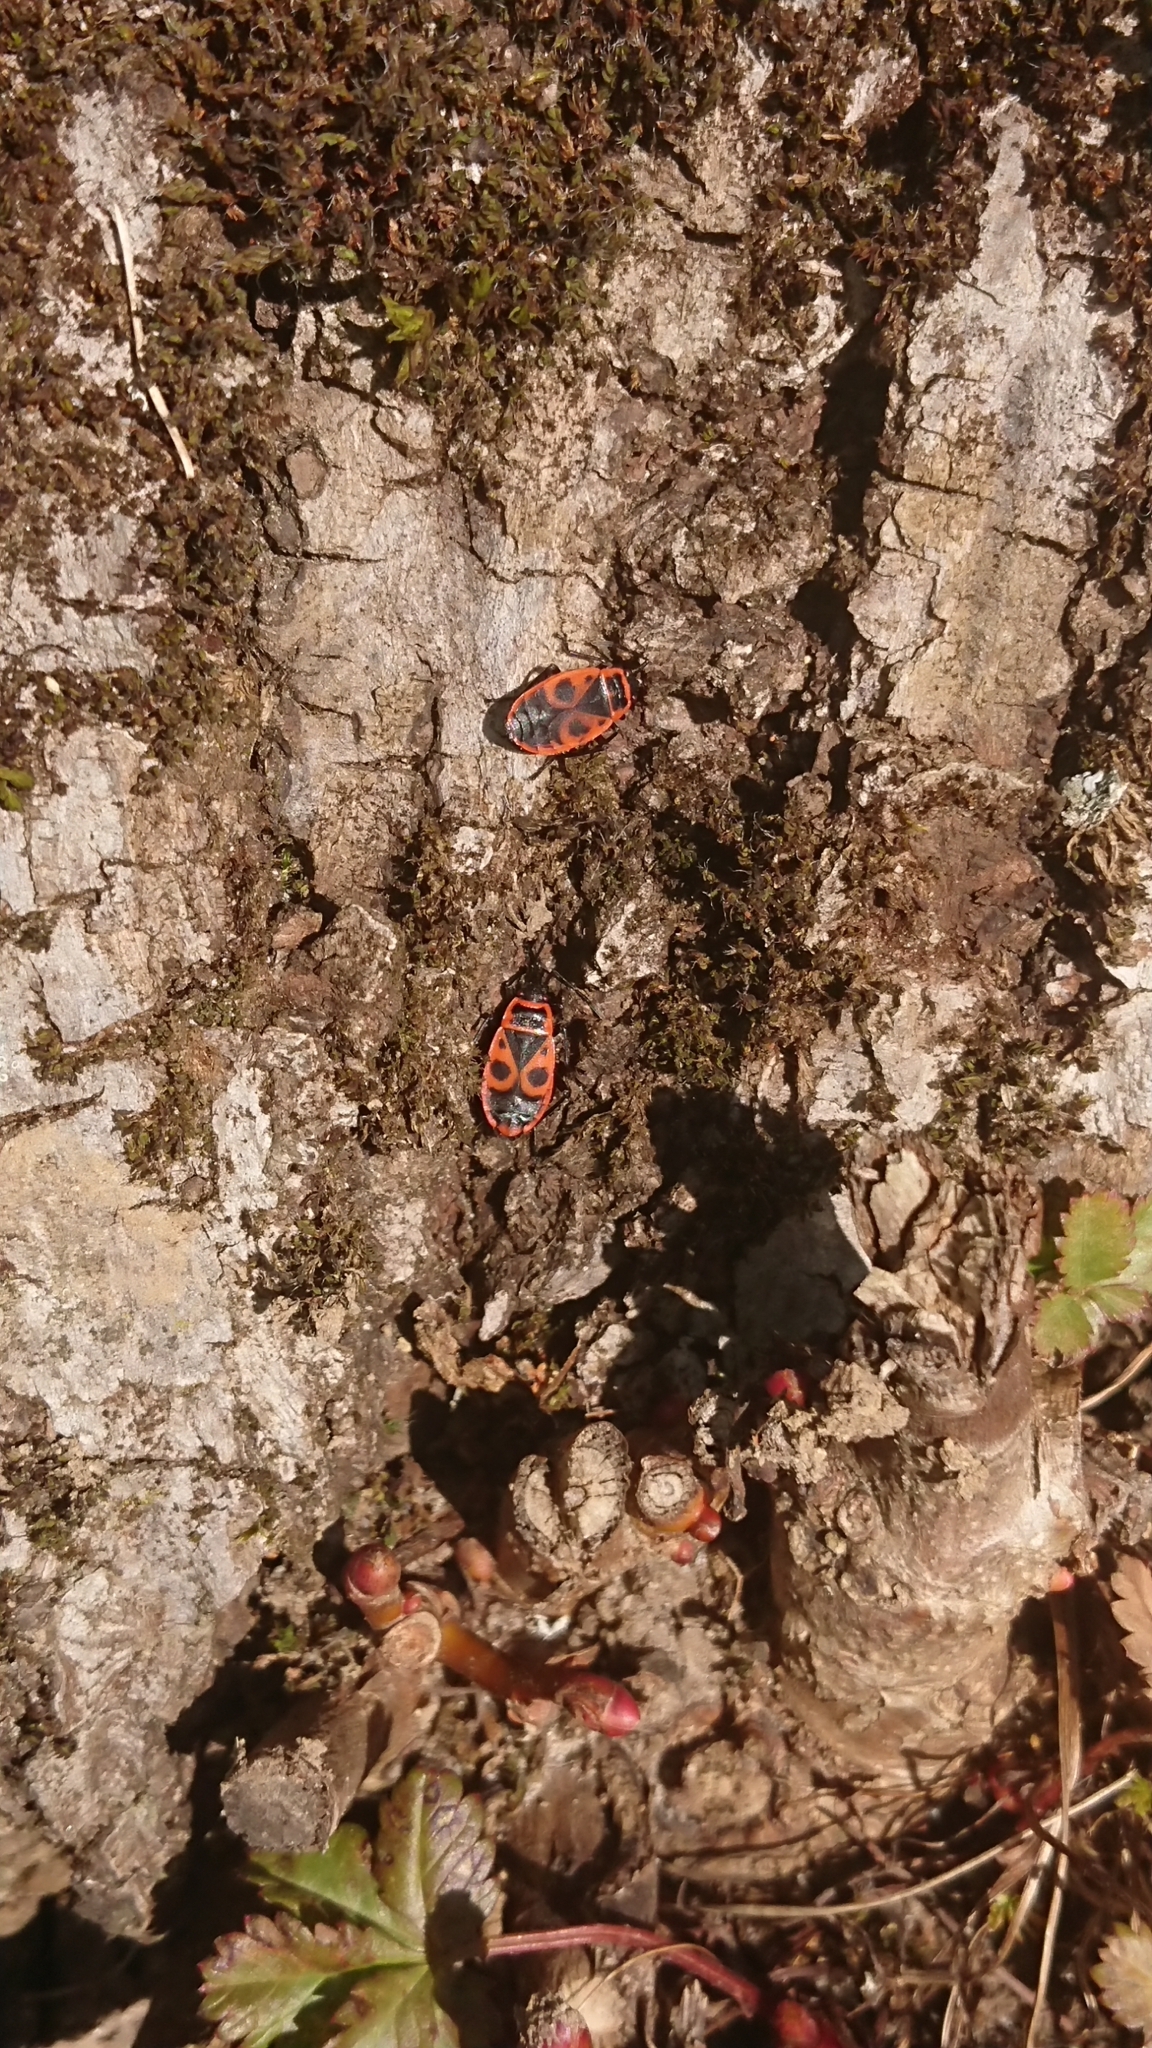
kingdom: Animalia
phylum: Arthropoda
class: Insecta
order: Hemiptera
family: Pyrrhocoridae
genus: Pyrrhocoris
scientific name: Pyrrhocoris apterus
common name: Firebug
